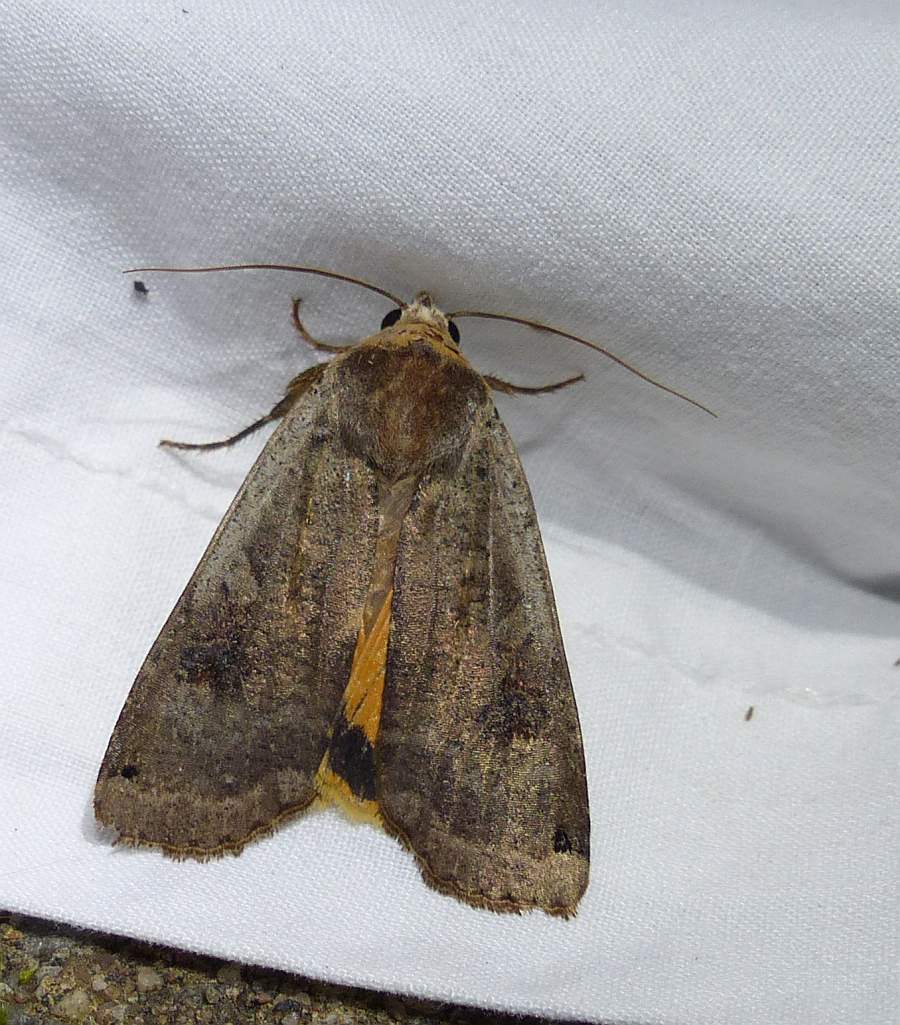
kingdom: Animalia
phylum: Arthropoda
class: Insecta
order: Lepidoptera
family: Noctuidae
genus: Noctua
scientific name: Noctua pronuba
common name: Large yellow underwing
